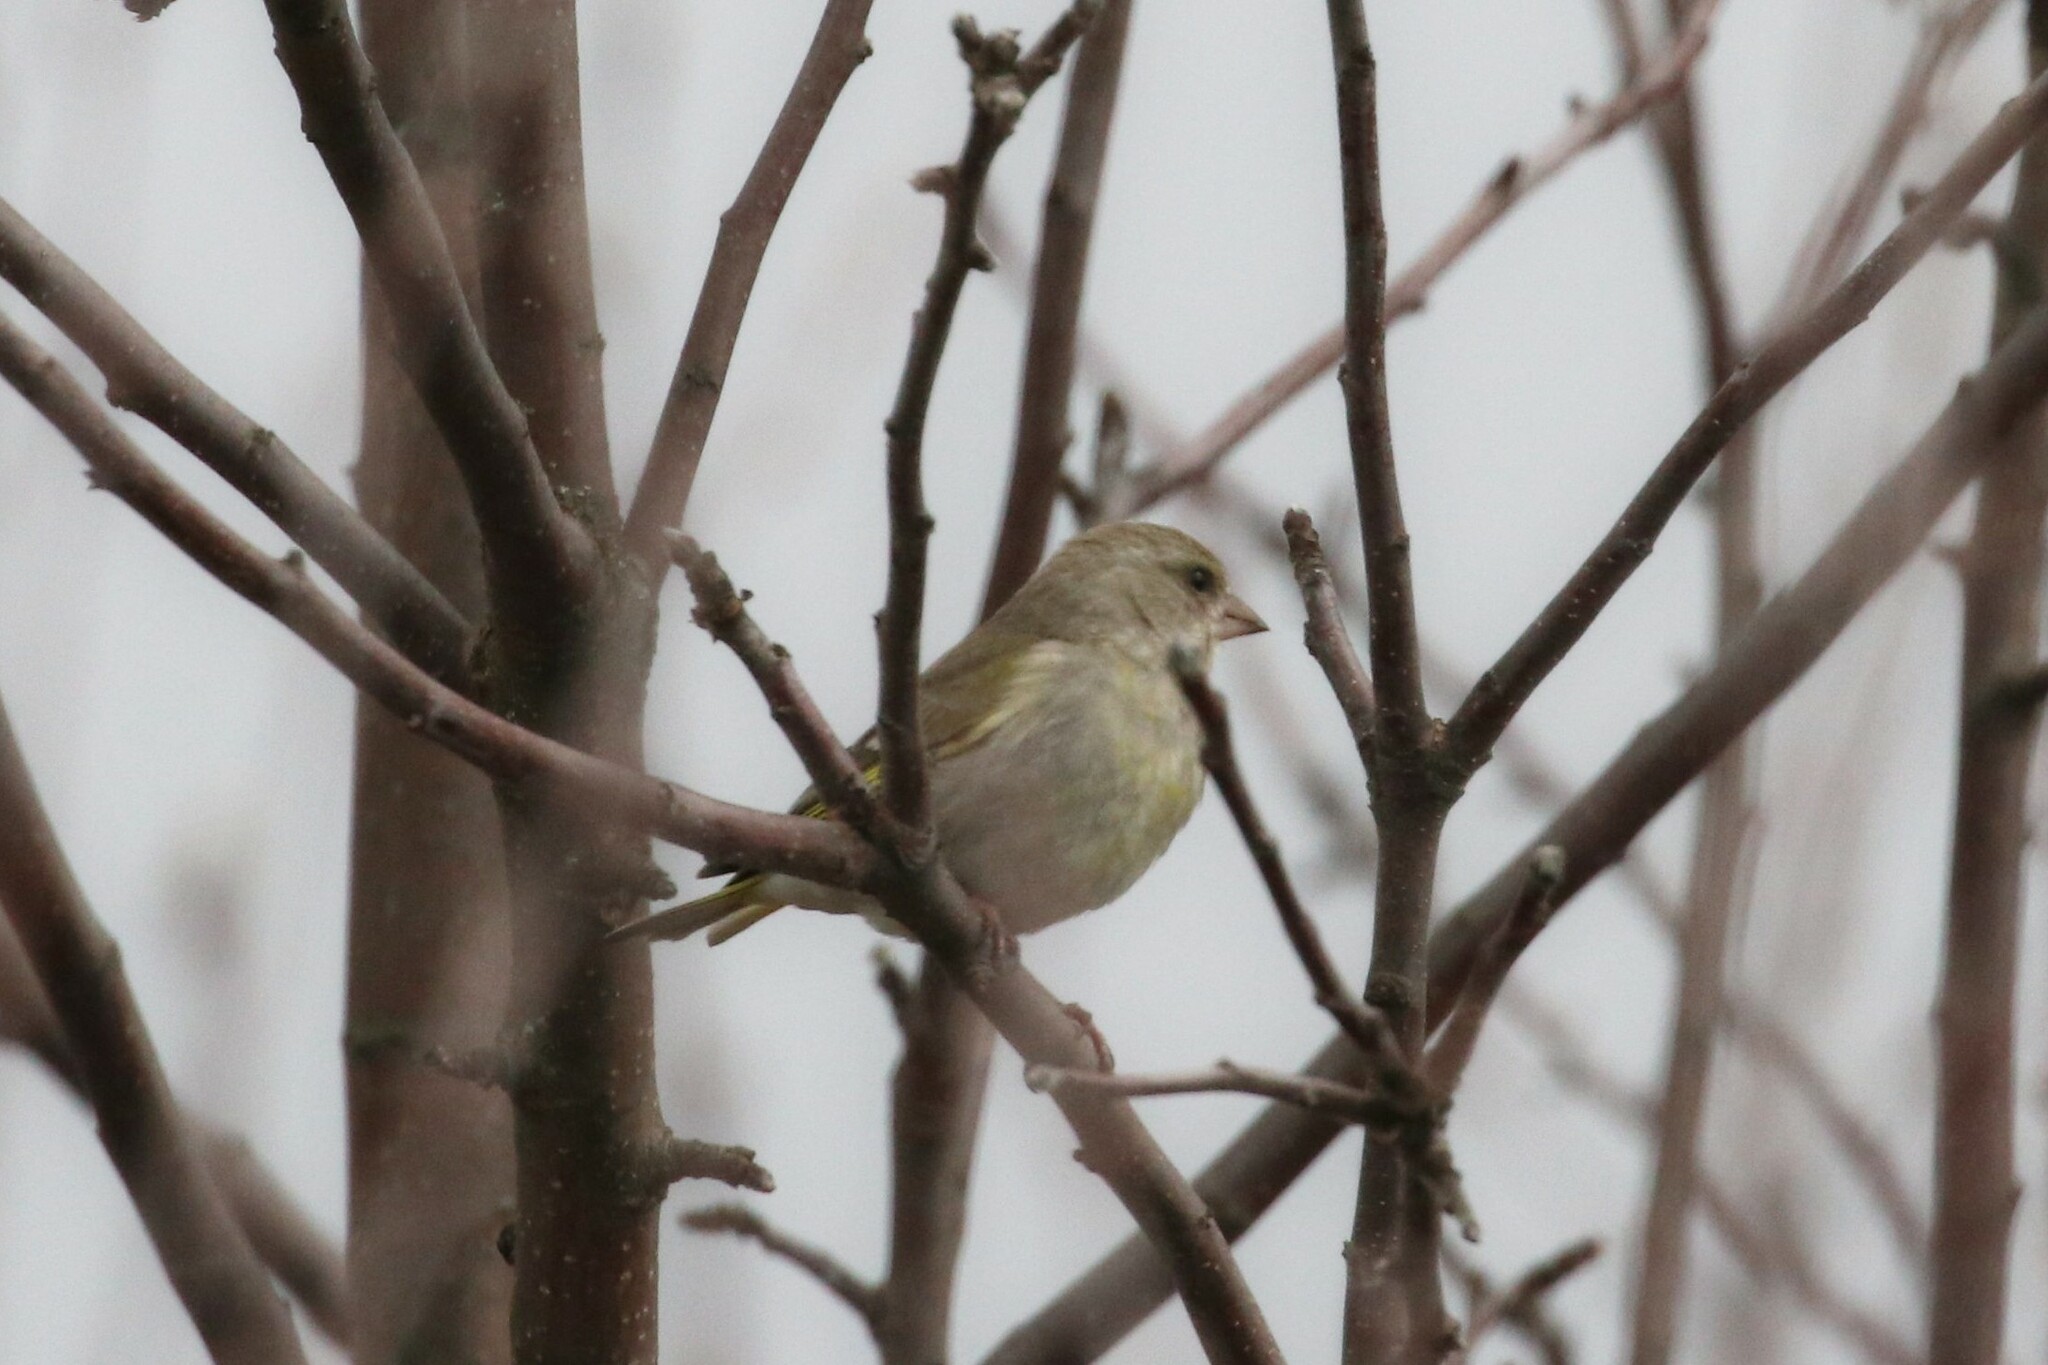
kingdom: Plantae
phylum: Tracheophyta
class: Liliopsida
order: Poales
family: Poaceae
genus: Chloris
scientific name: Chloris chloris
